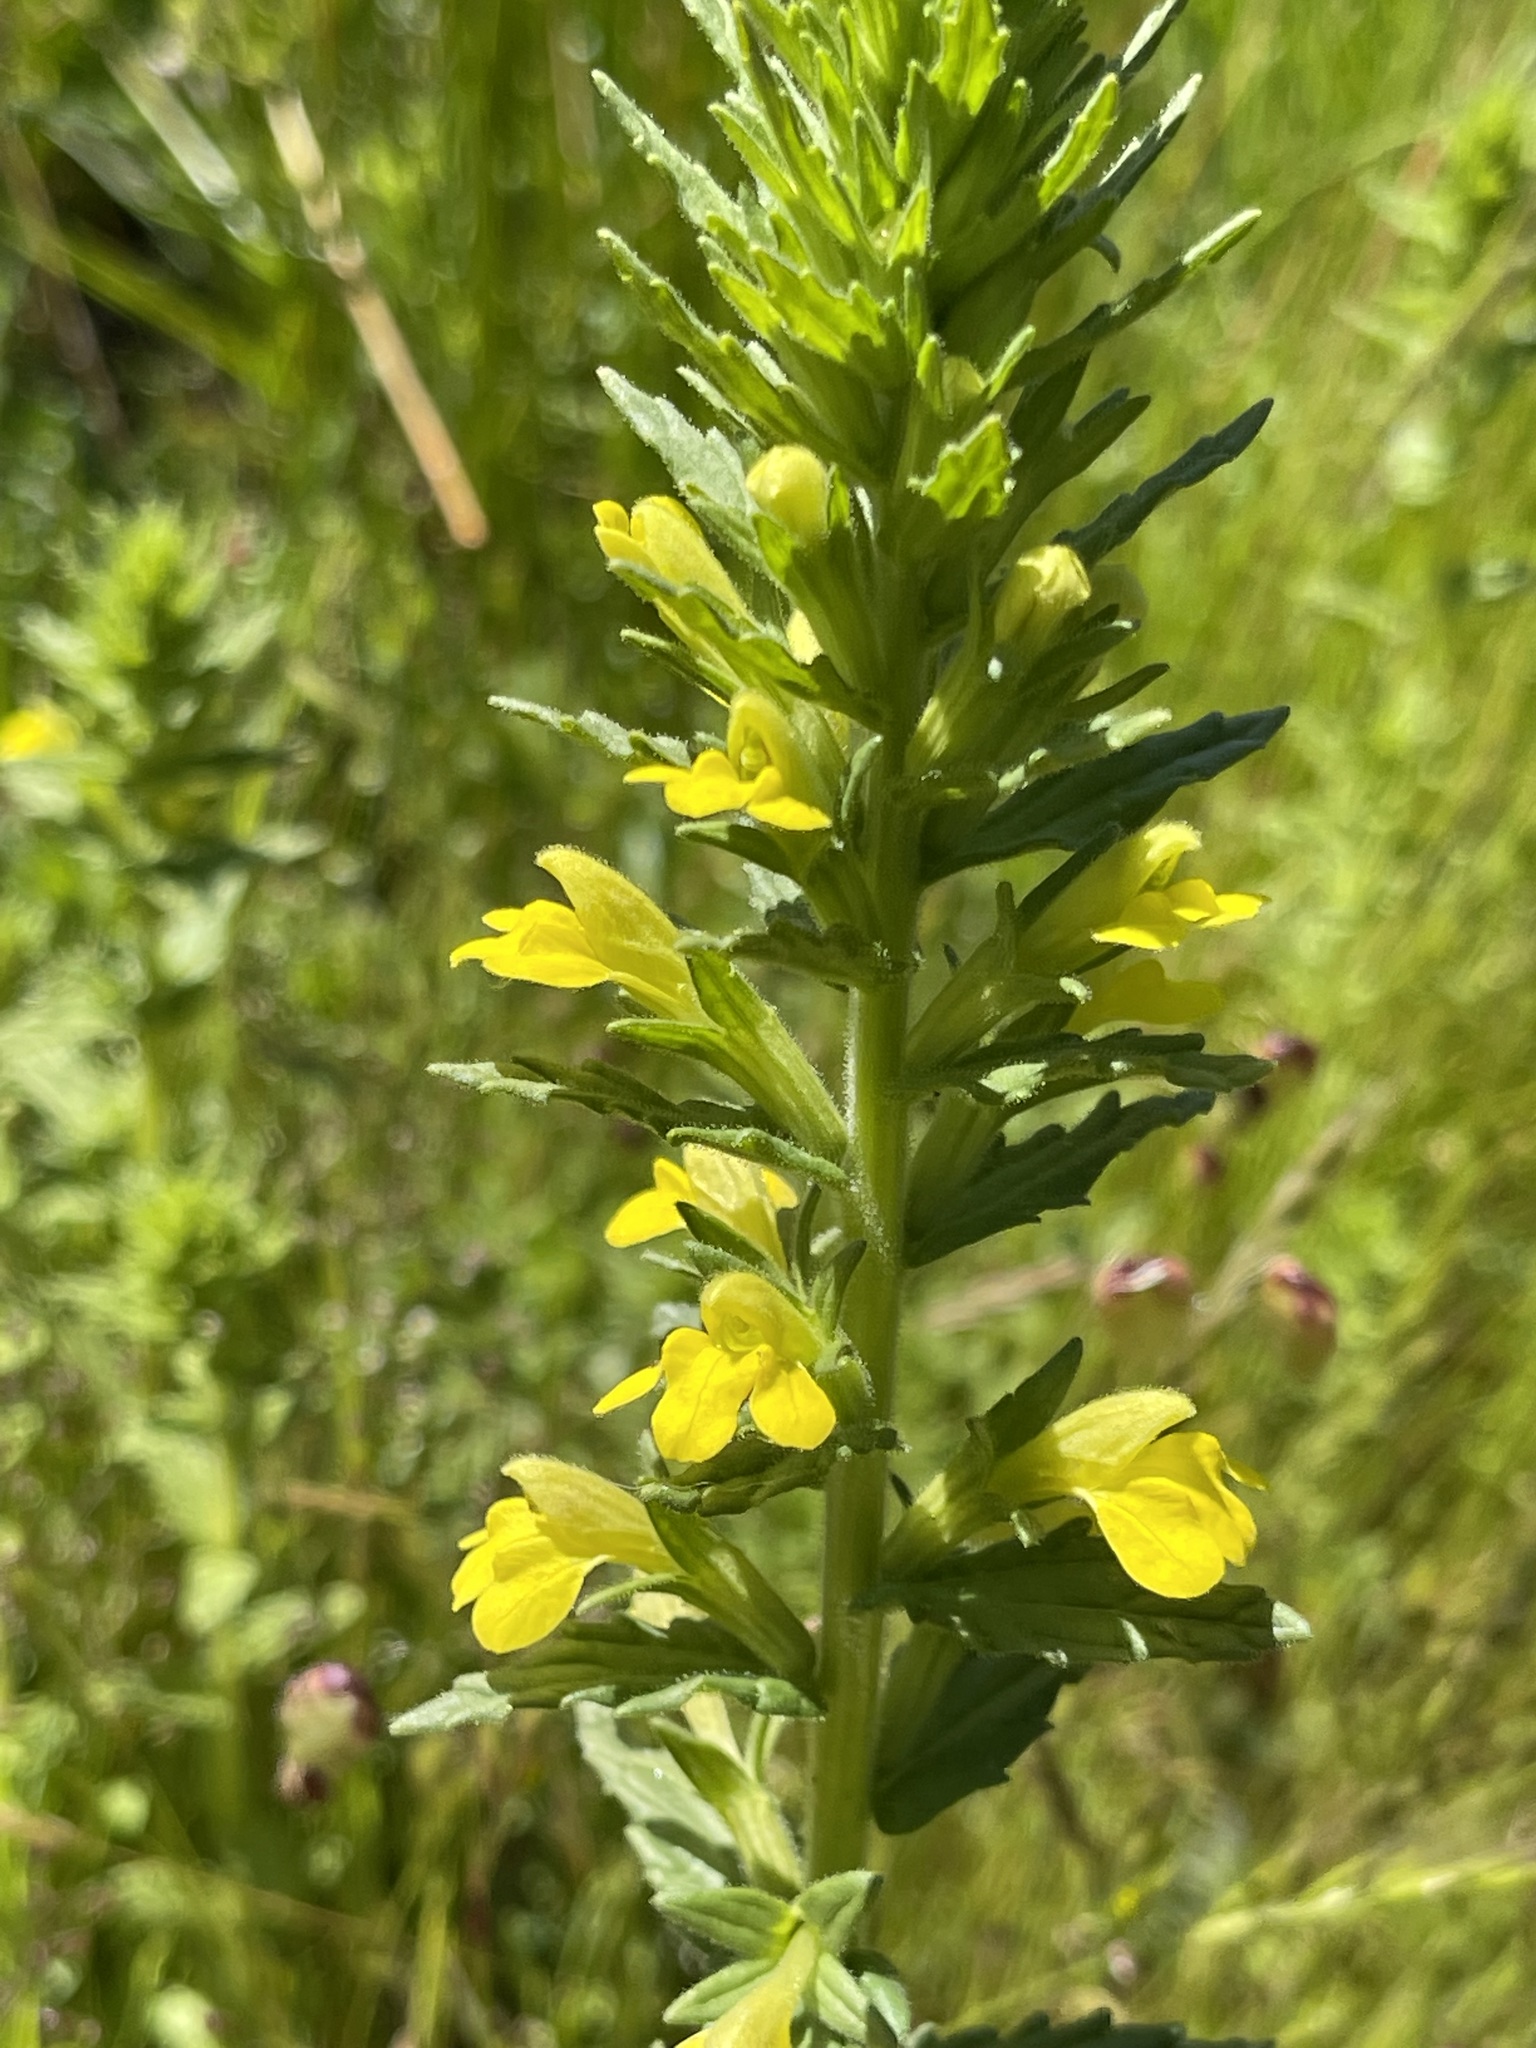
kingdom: Plantae
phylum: Tracheophyta
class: Magnoliopsida
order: Lamiales
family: Orobanchaceae
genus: Bellardia
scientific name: Bellardia viscosa
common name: Sticky parentucellia
